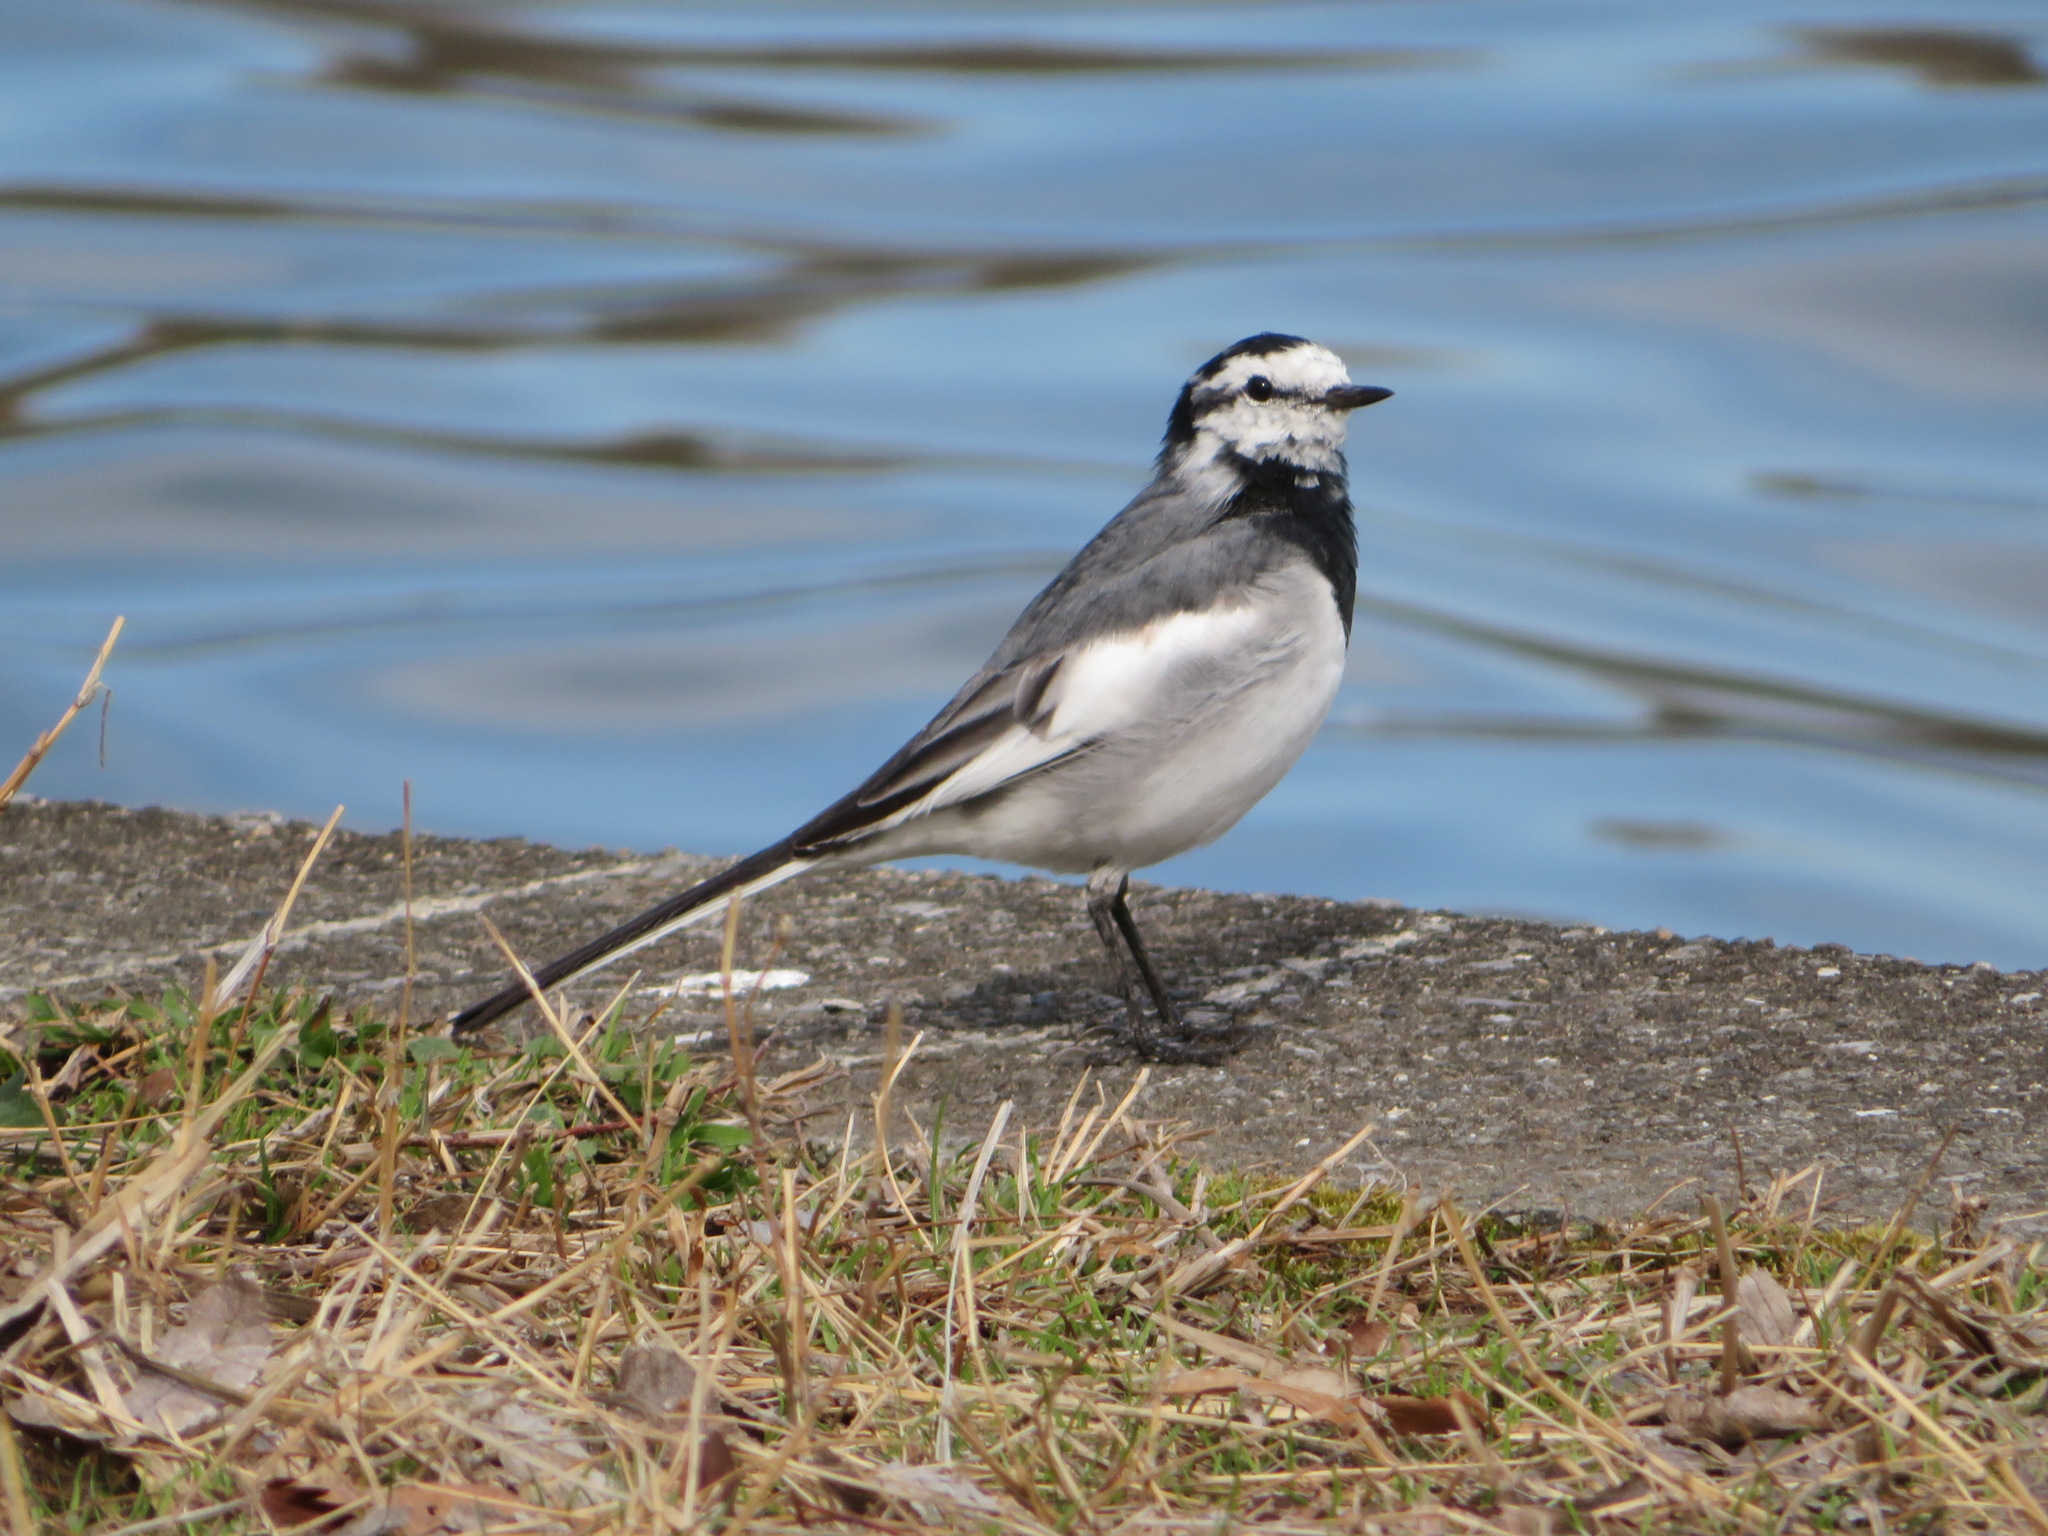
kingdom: Animalia
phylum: Chordata
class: Aves
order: Passeriformes
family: Motacillidae
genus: Motacilla
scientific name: Motacilla alba
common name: White wagtail
